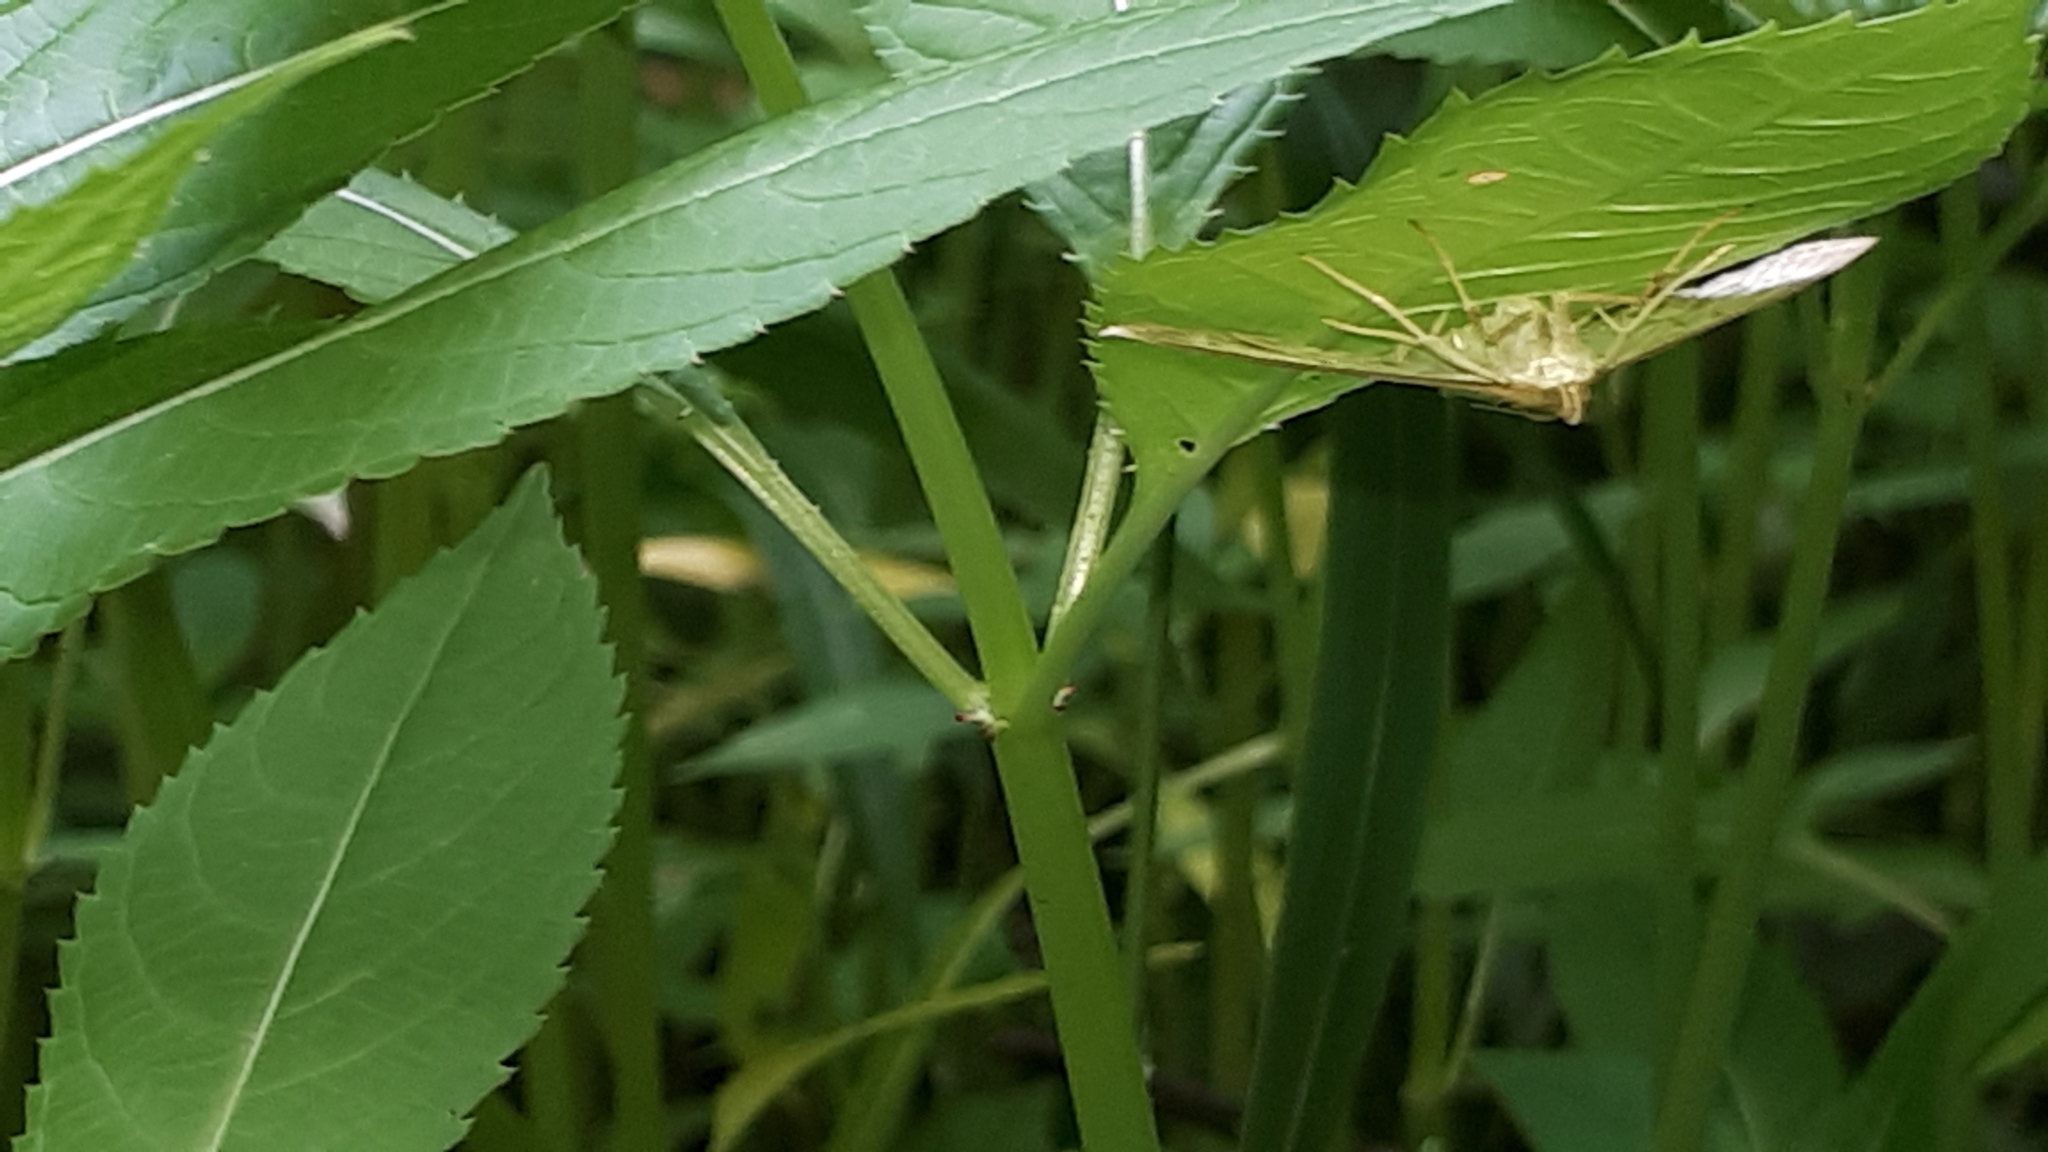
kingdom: Animalia
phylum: Arthropoda
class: Insecta
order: Lepidoptera
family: Crambidae
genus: Patania
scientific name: Patania ruralis
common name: Mother of pearl
